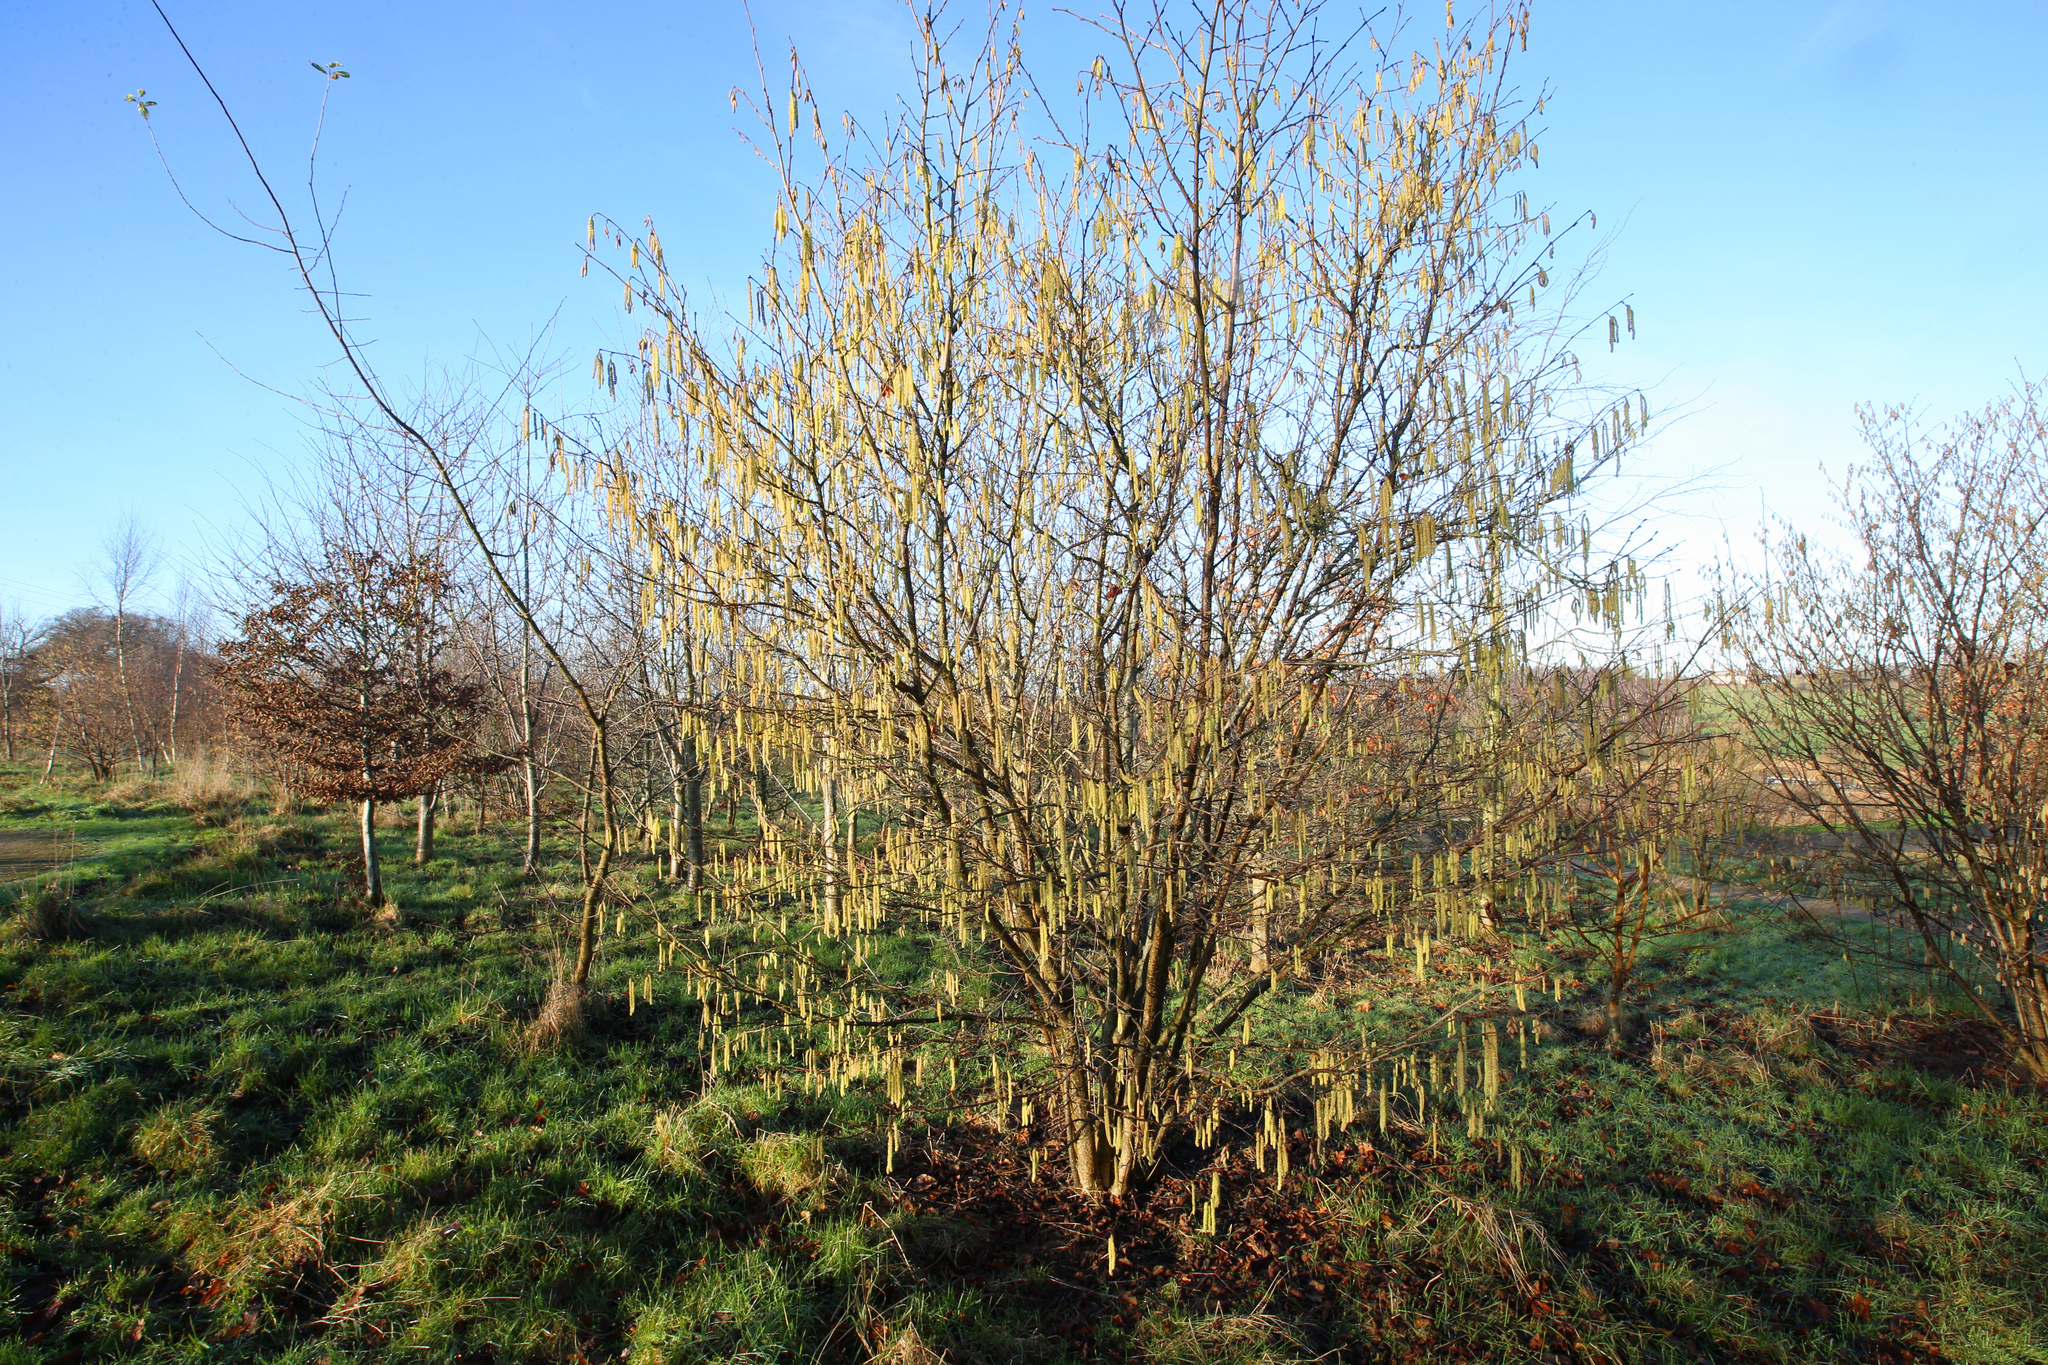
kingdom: Plantae
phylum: Tracheophyta
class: Magnoliopsida
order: Fagales
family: Betulaceae
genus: Corylus
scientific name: Corylus avellana
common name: European hazel
